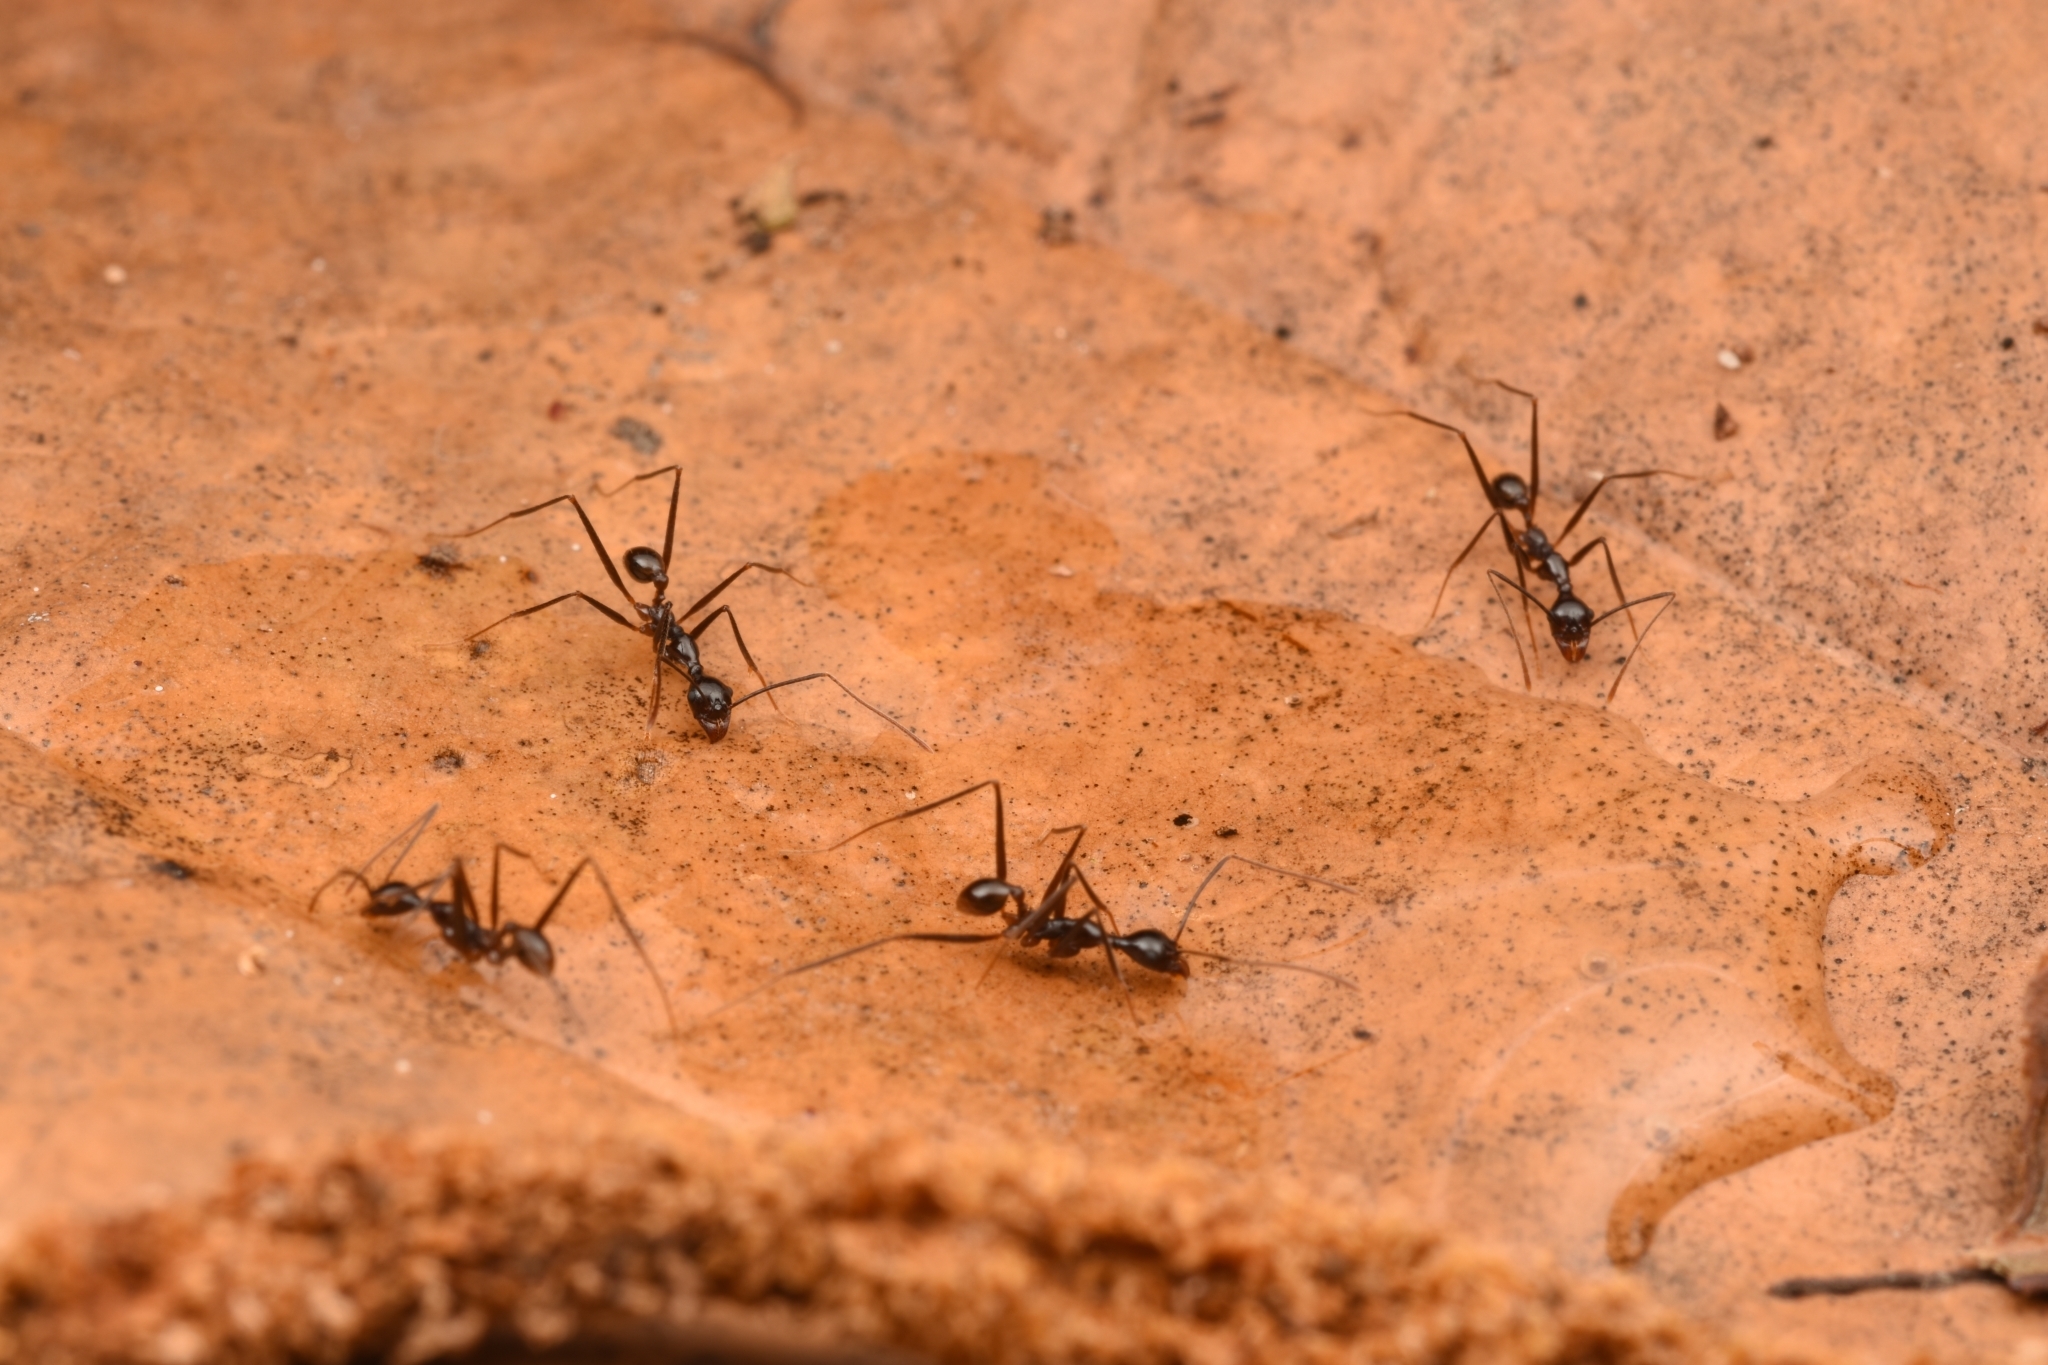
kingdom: Animalia
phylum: Arthropoda
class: Insecta
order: Hymenoptera
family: Formicidae
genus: Pheidole
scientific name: Pheidole
